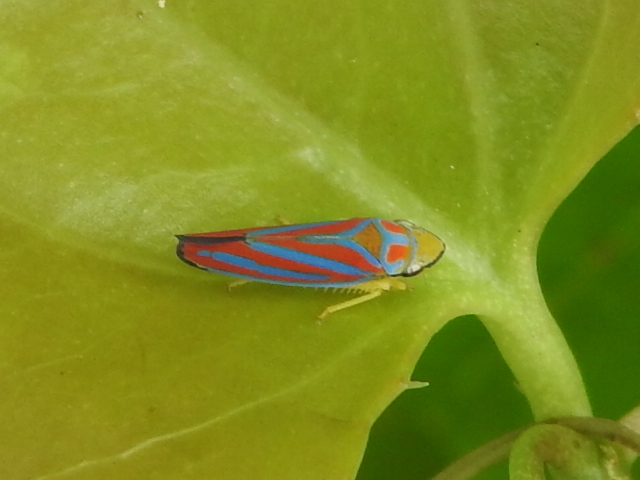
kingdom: Animalia
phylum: Arthropoda
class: Insecta
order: Hemiptera
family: Cicadellidae
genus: Graphocephala
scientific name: Graphocephala coccinea
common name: Candy-striped leafhopper
